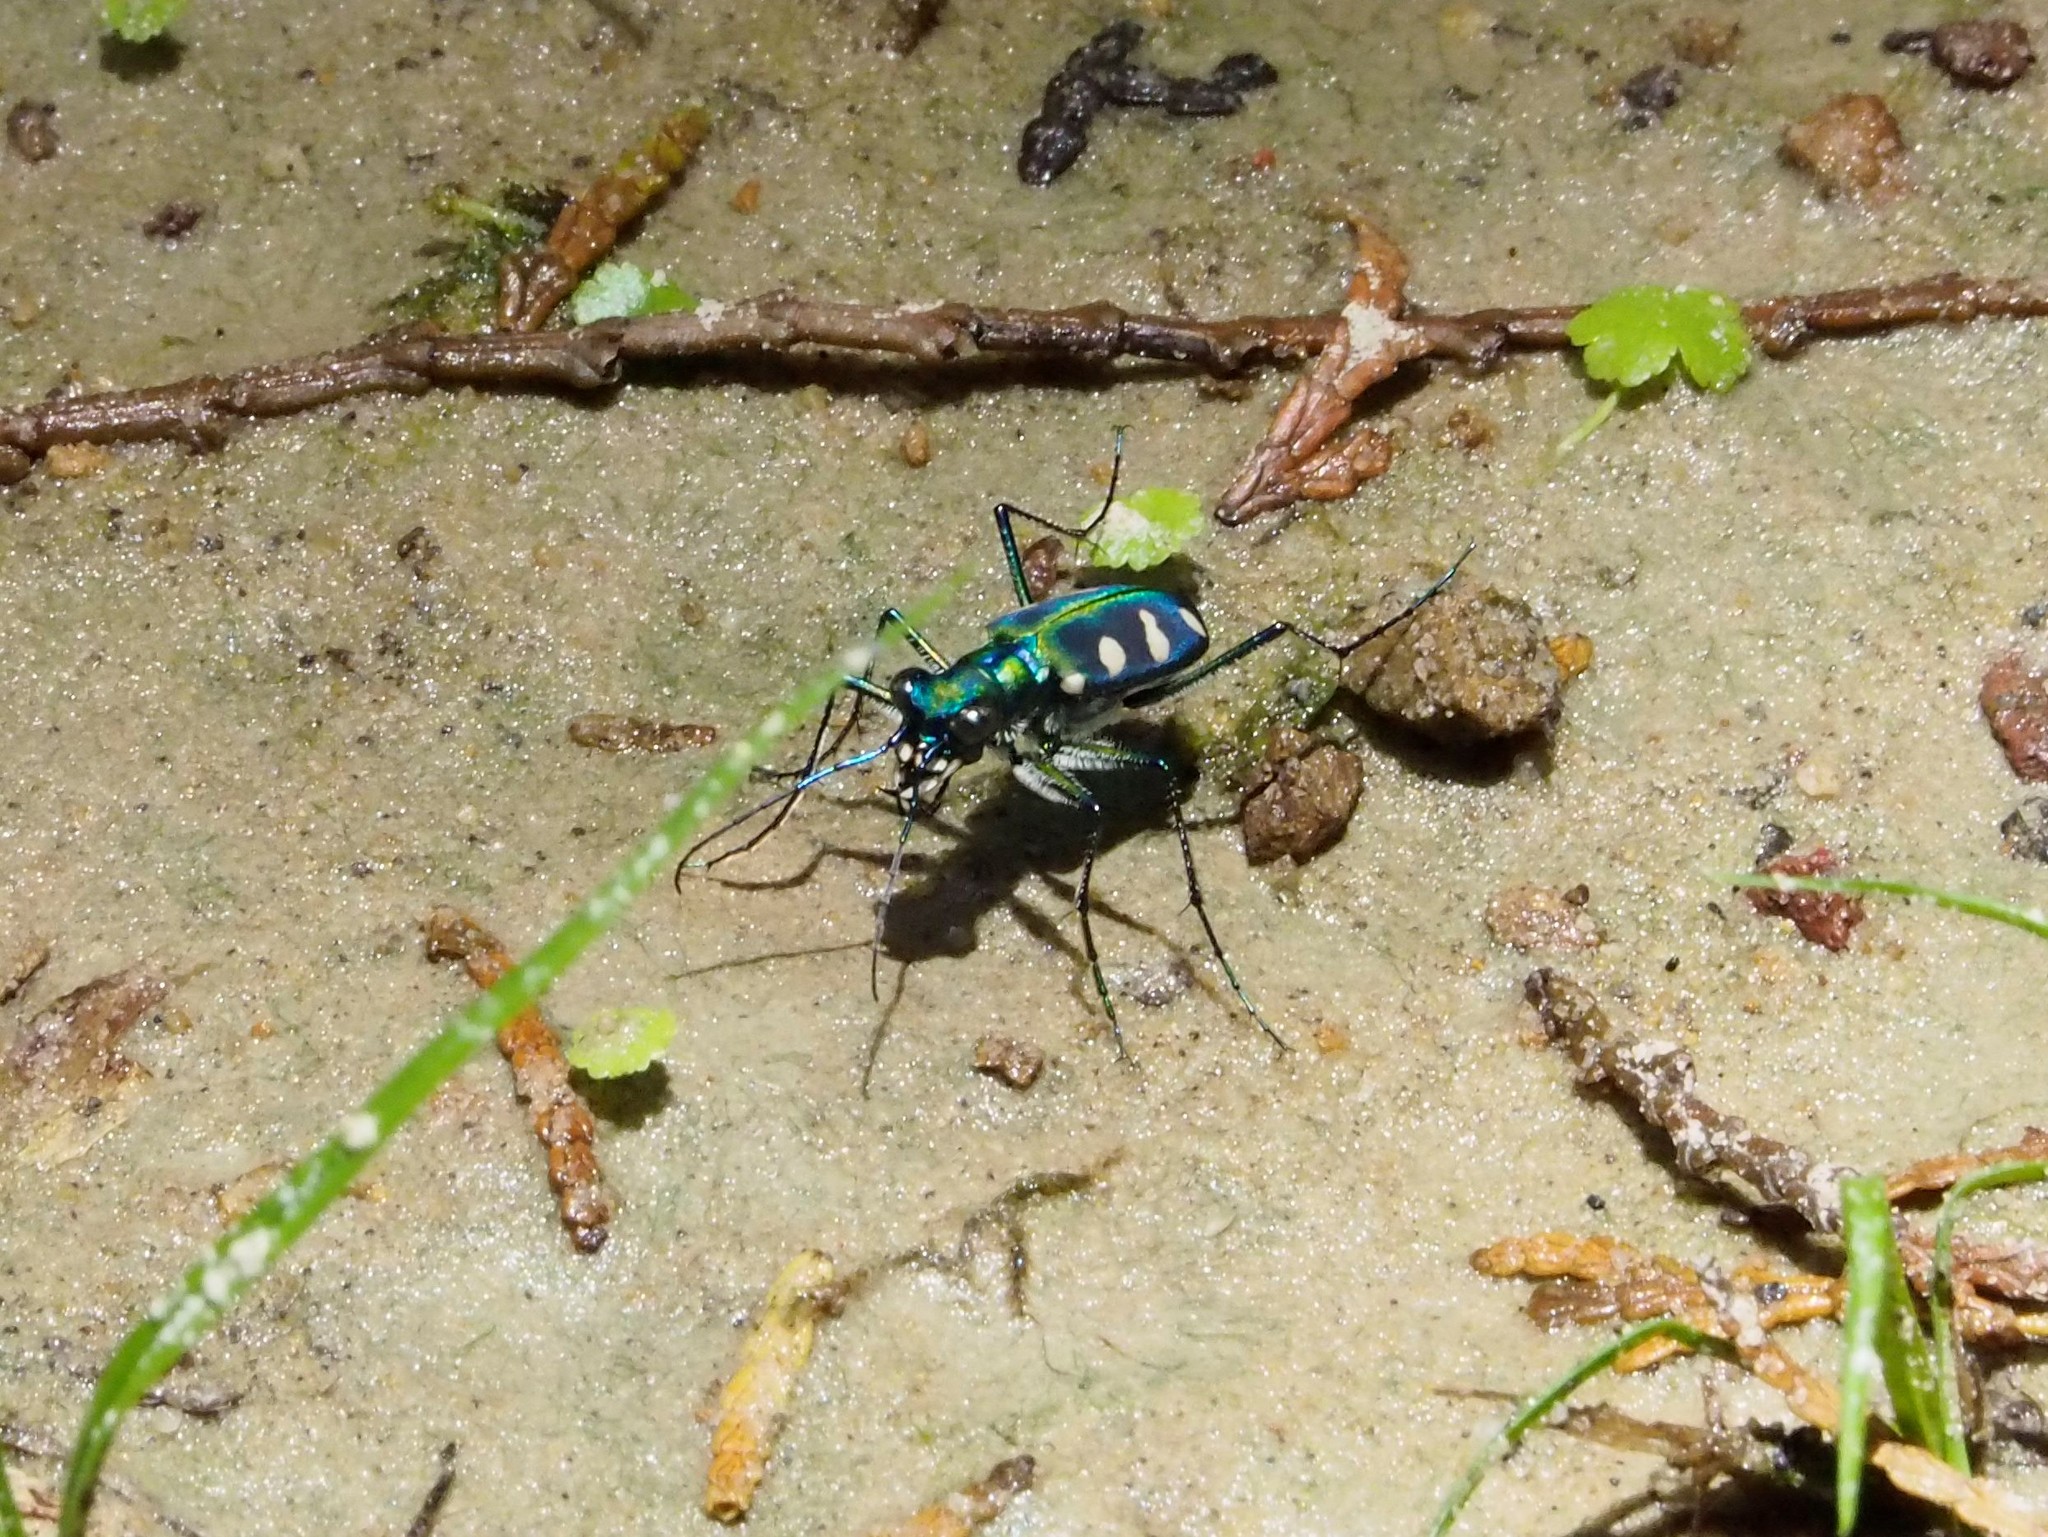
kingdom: Animalia
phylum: Arthropoda
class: Insecta
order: Coleoptera
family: Carabidae
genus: Cicindela
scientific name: Cicindela batesi
